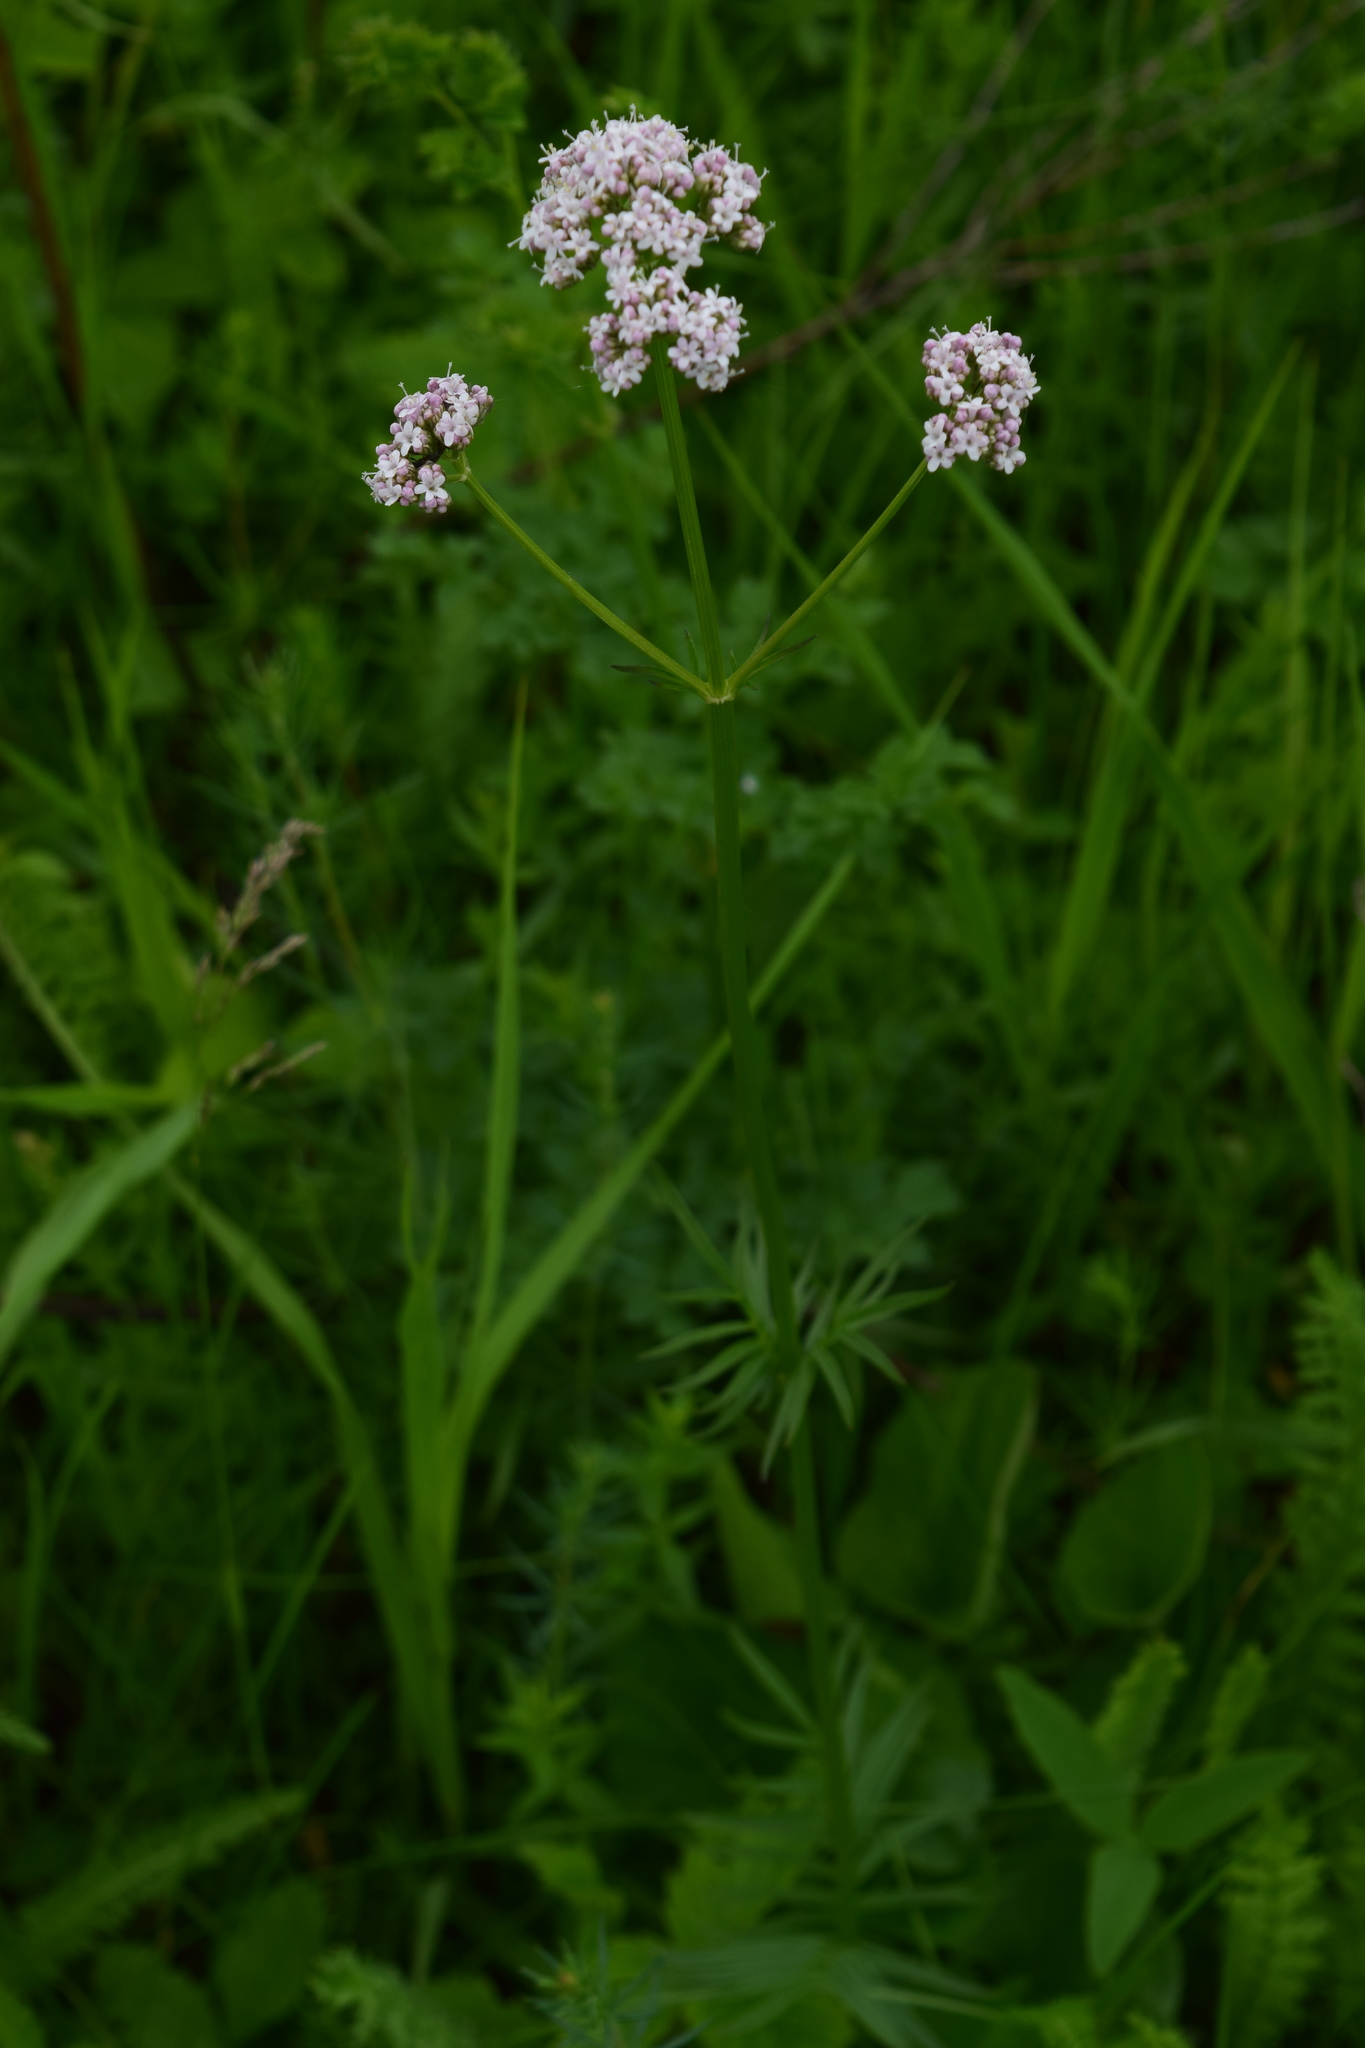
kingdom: Plantae
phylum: Tracheophyta
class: Magnoliopsida
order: Dipsacales
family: Caprifoliaceae
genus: Valeriana
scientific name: Valeriana officinalis
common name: Common valerian
